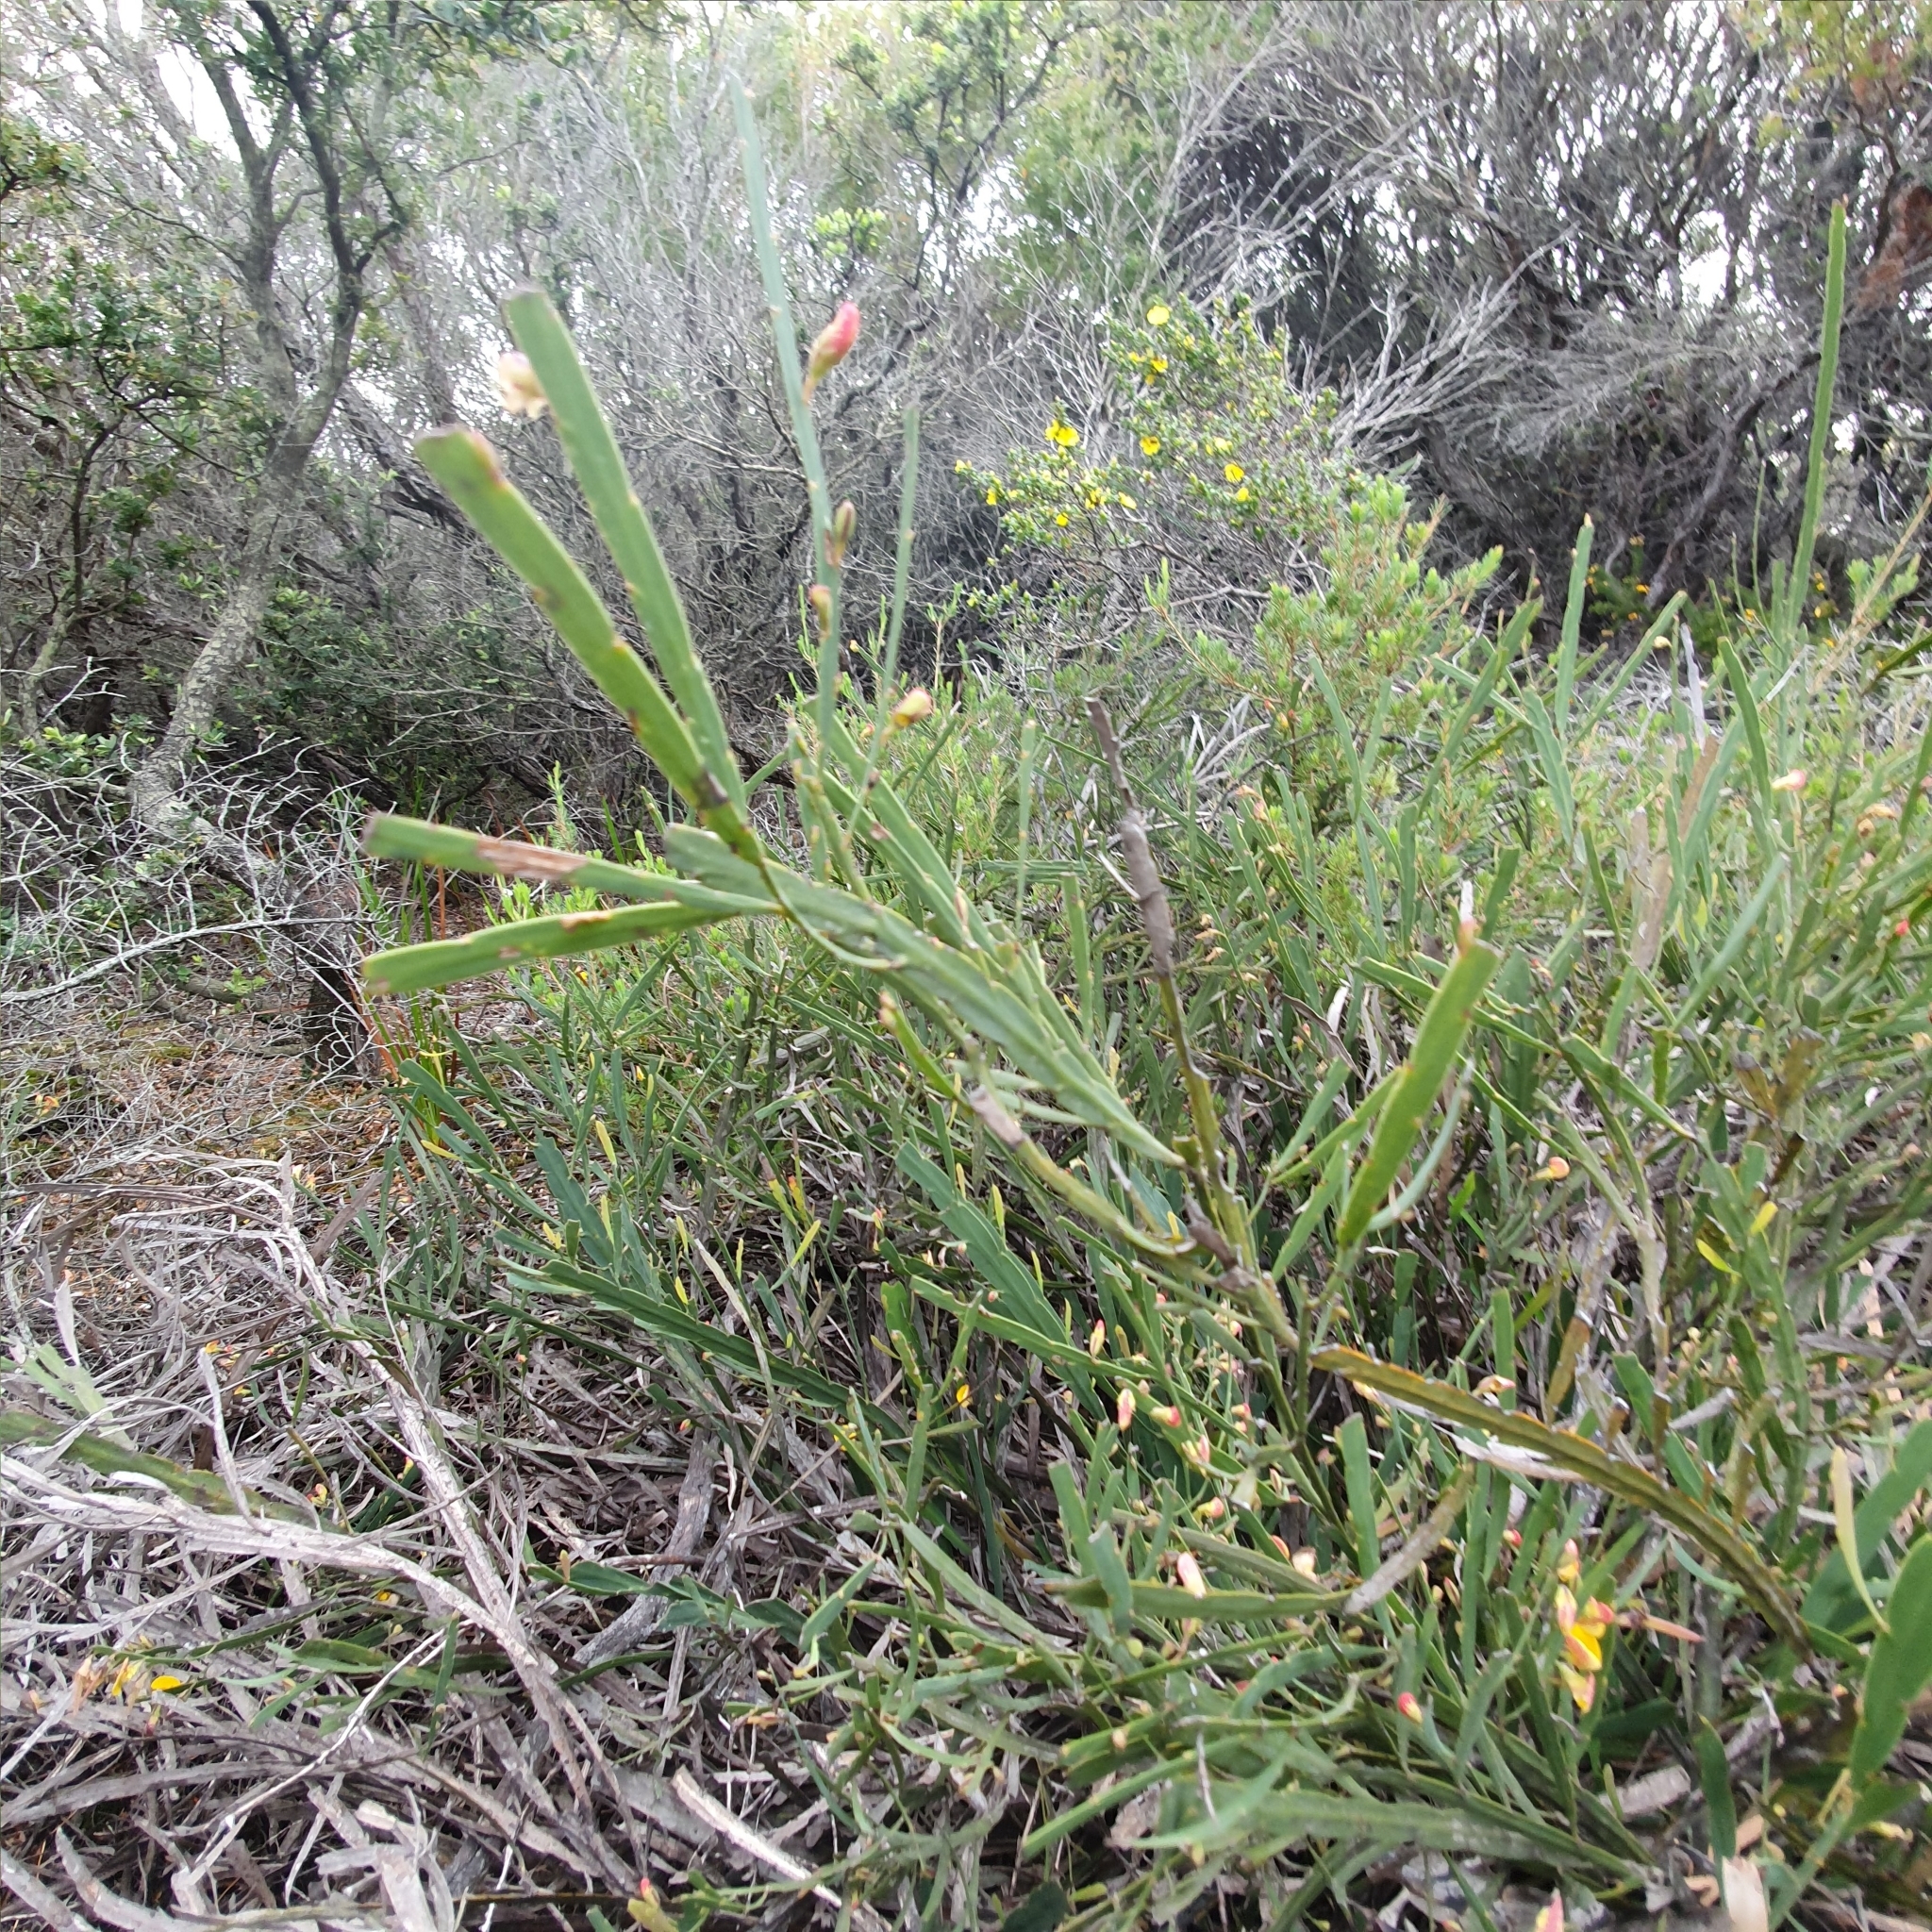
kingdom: Plantae
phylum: Tracheophyta
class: Magnoliopsida
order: Fabales
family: Fabaceae
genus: Bossiaea
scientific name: Bossiaea ensata
